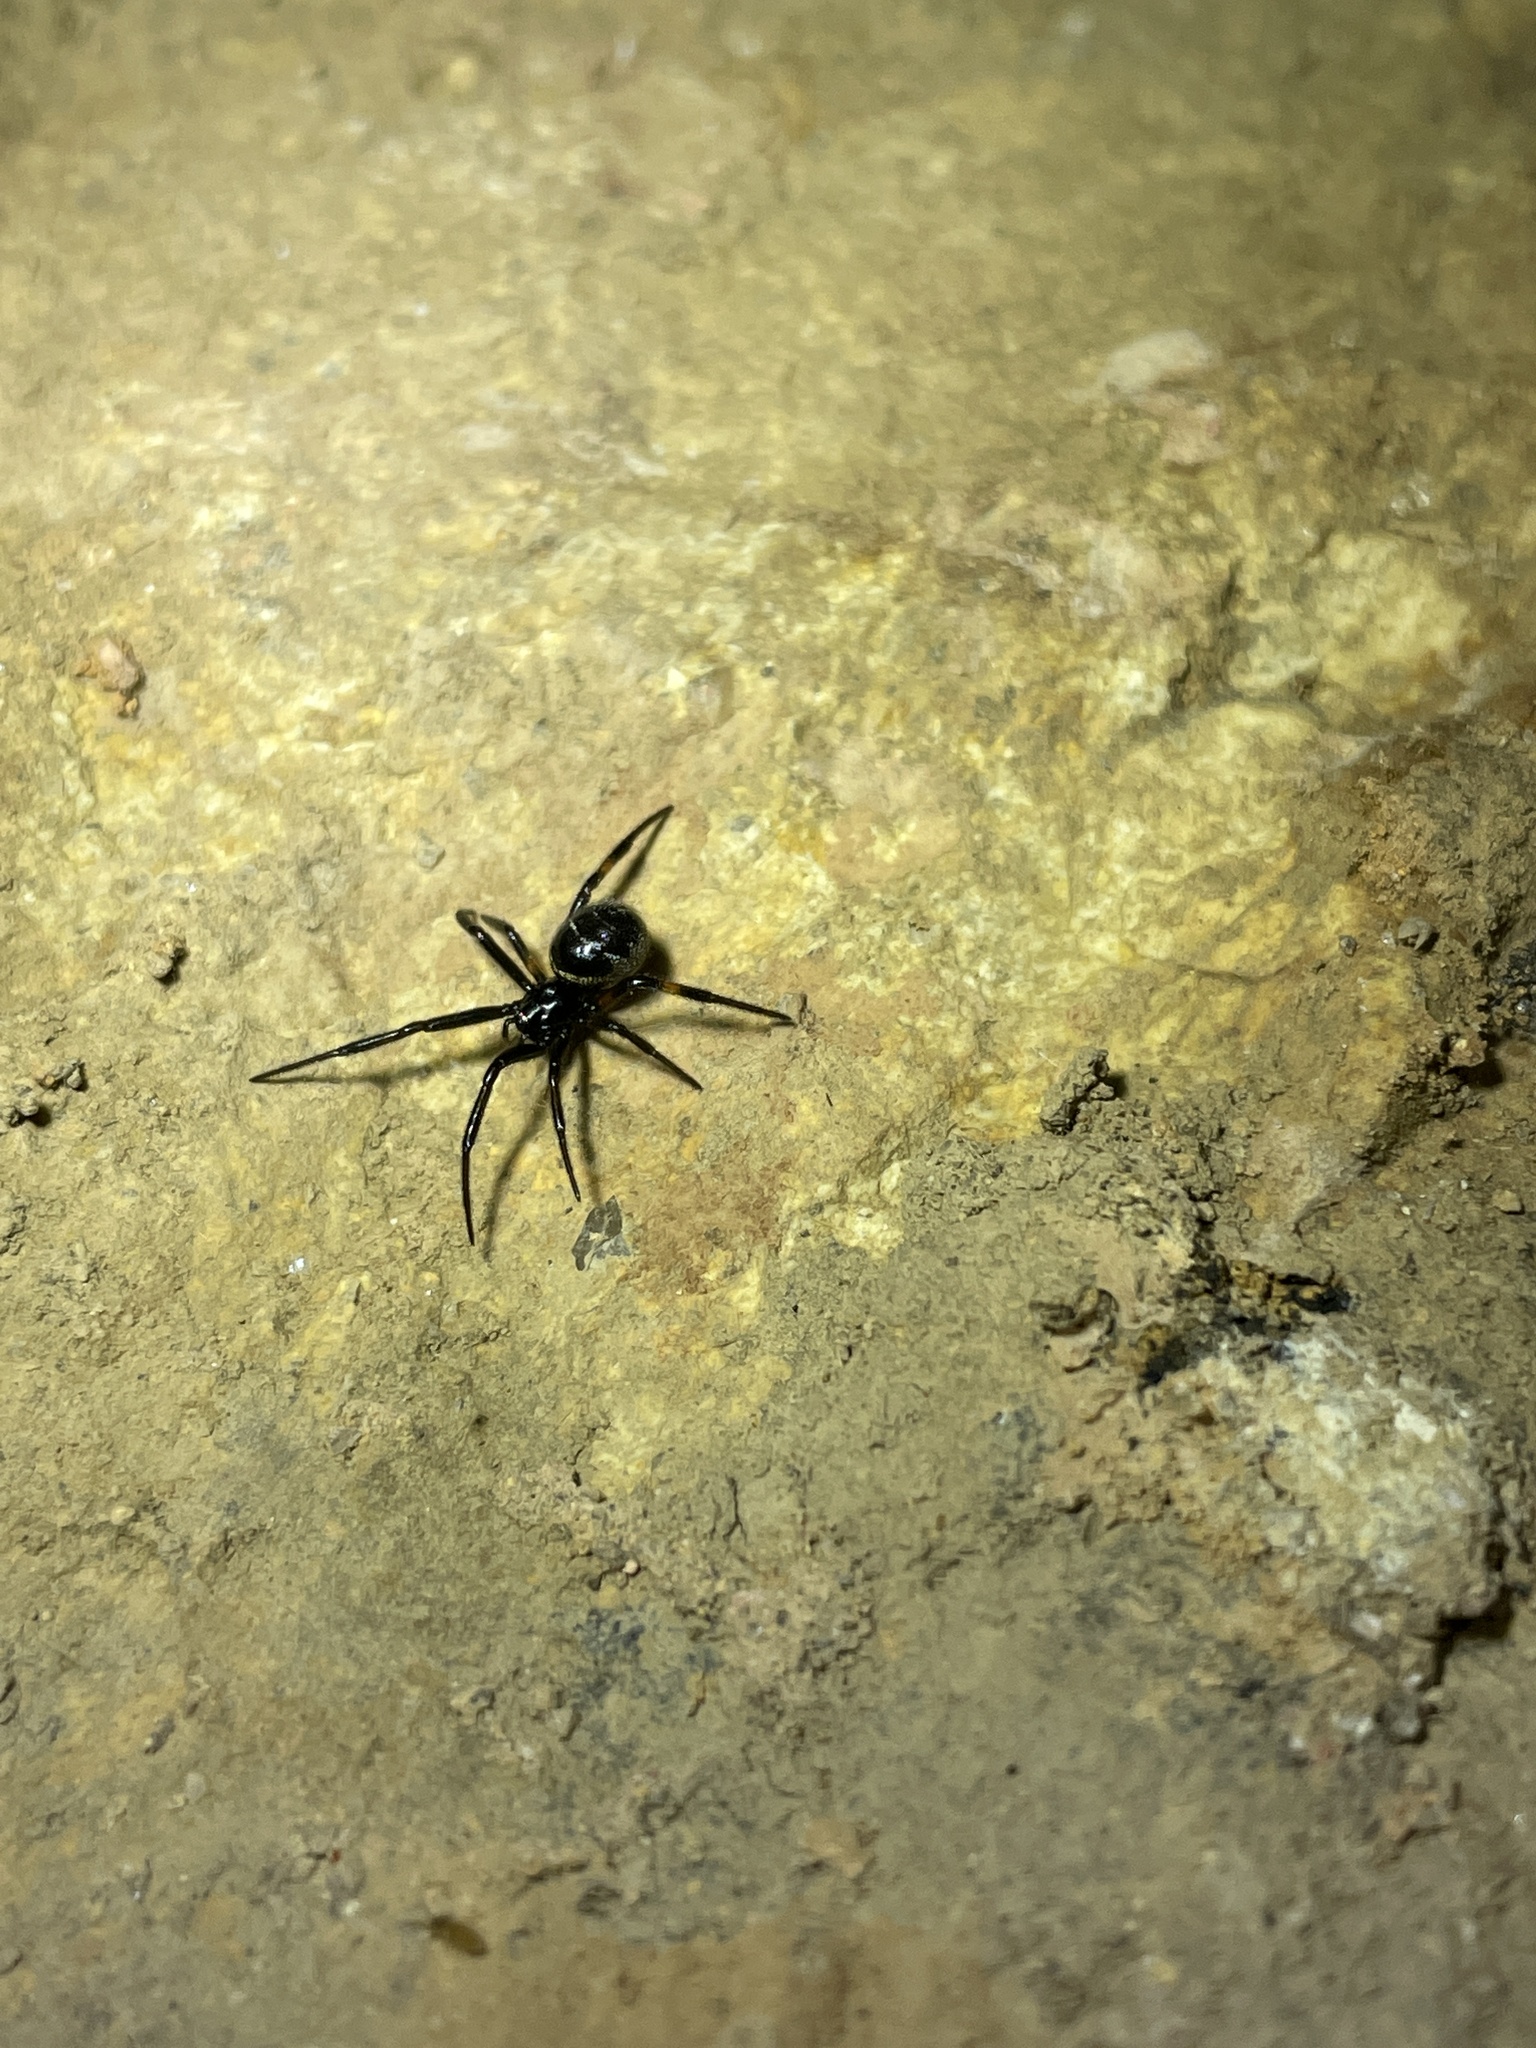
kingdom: Animalia
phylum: Arthropoda
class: Arachnida
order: Araneae
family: Theridiidae
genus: Steatoda
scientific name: Steatoda cingulata
